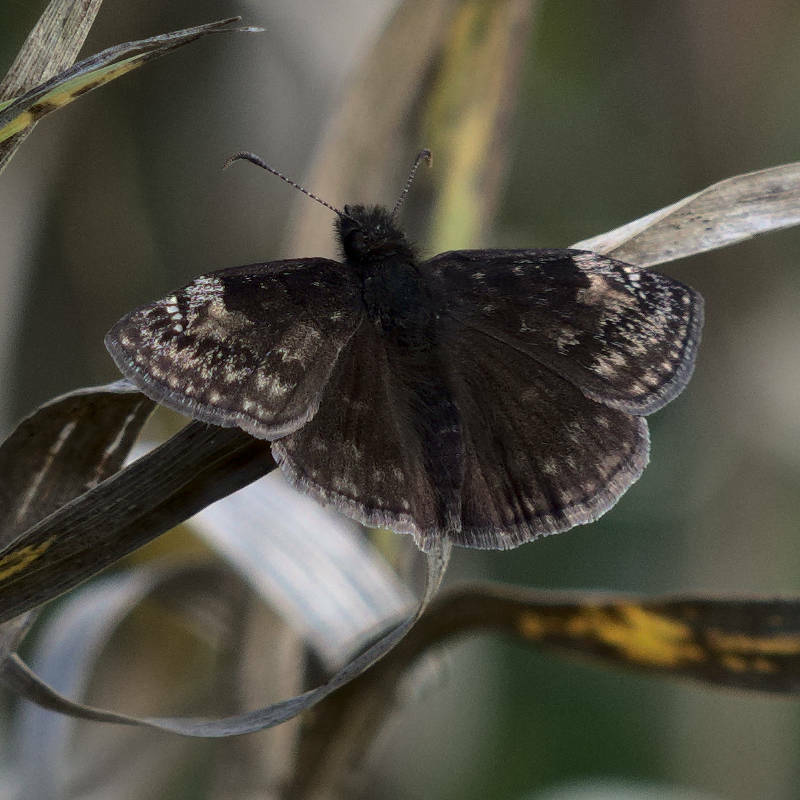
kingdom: Animalia
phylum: Arthropoda
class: Insecta
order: Lepidoptera
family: Hesperiidae
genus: Erynnis
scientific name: Erynnis baptisiae
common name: Wild indigo duskywing
